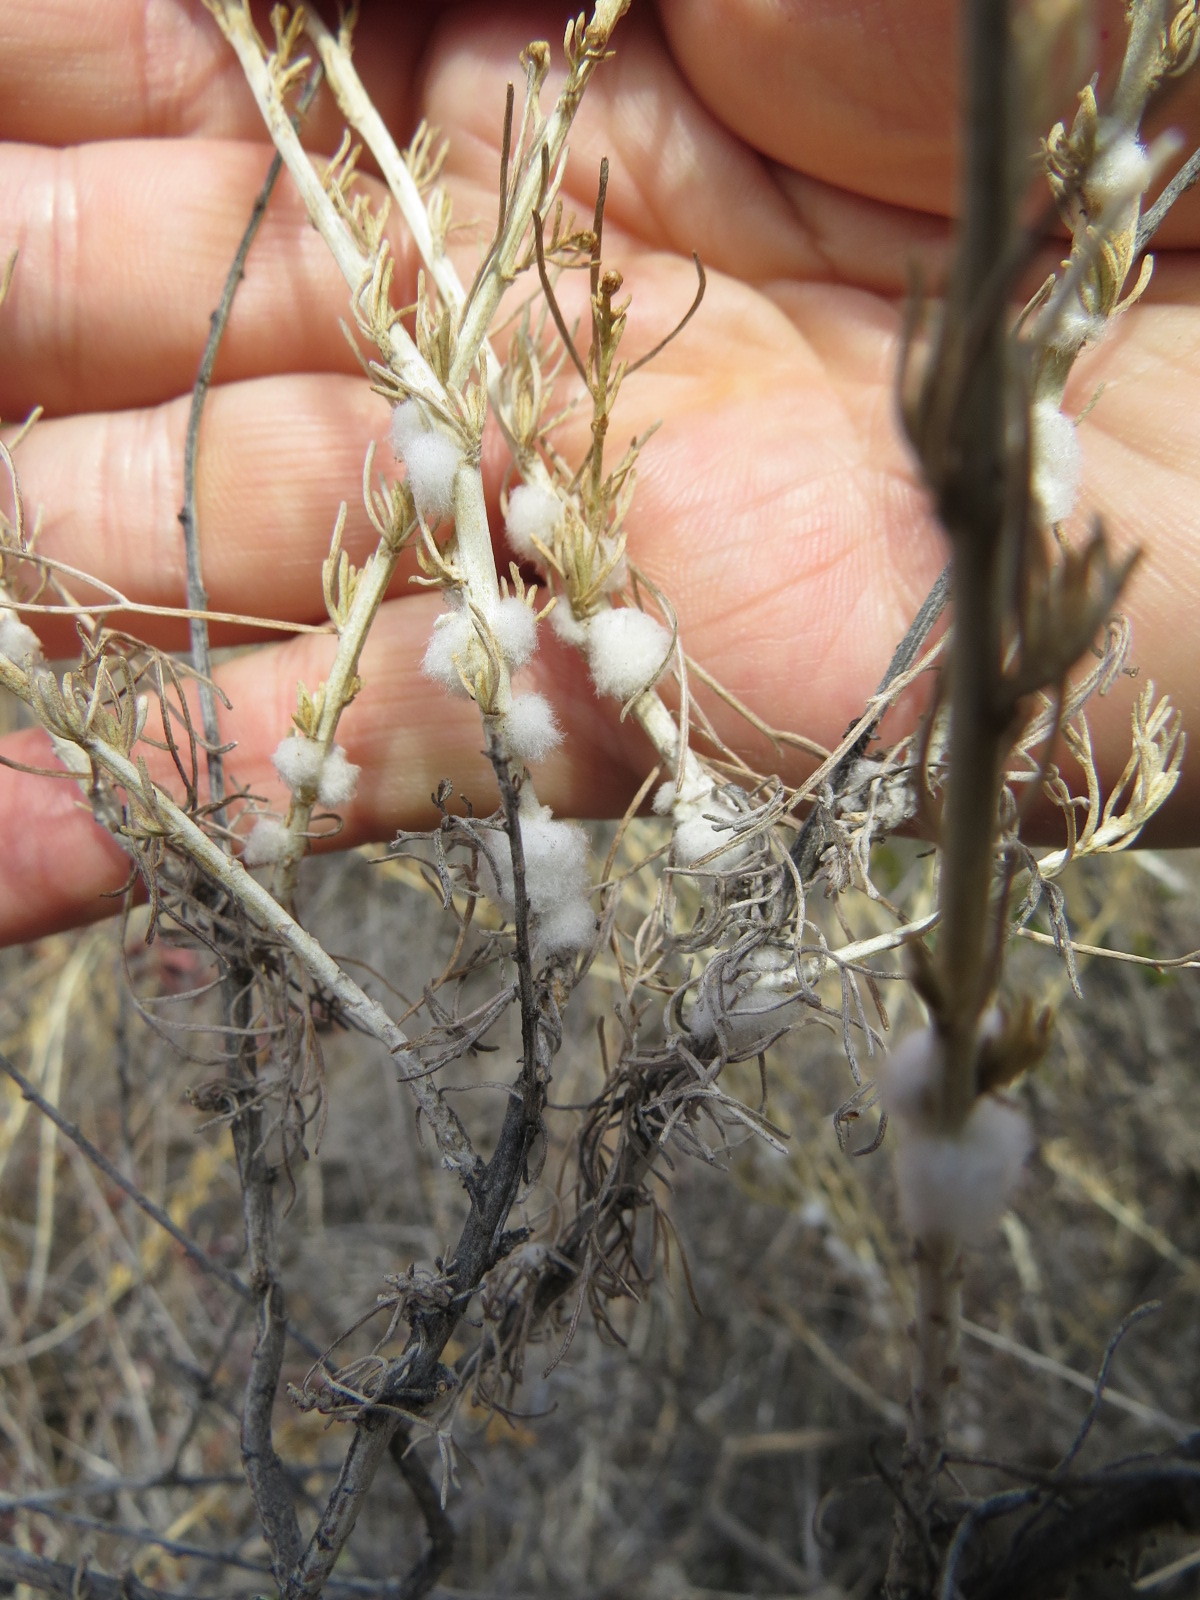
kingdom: Animalia
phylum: Arthropoda
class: Insecta
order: Diptera
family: Cecidomyiidae
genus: Rhopalomyia
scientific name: Rhopalomyia floccosa
